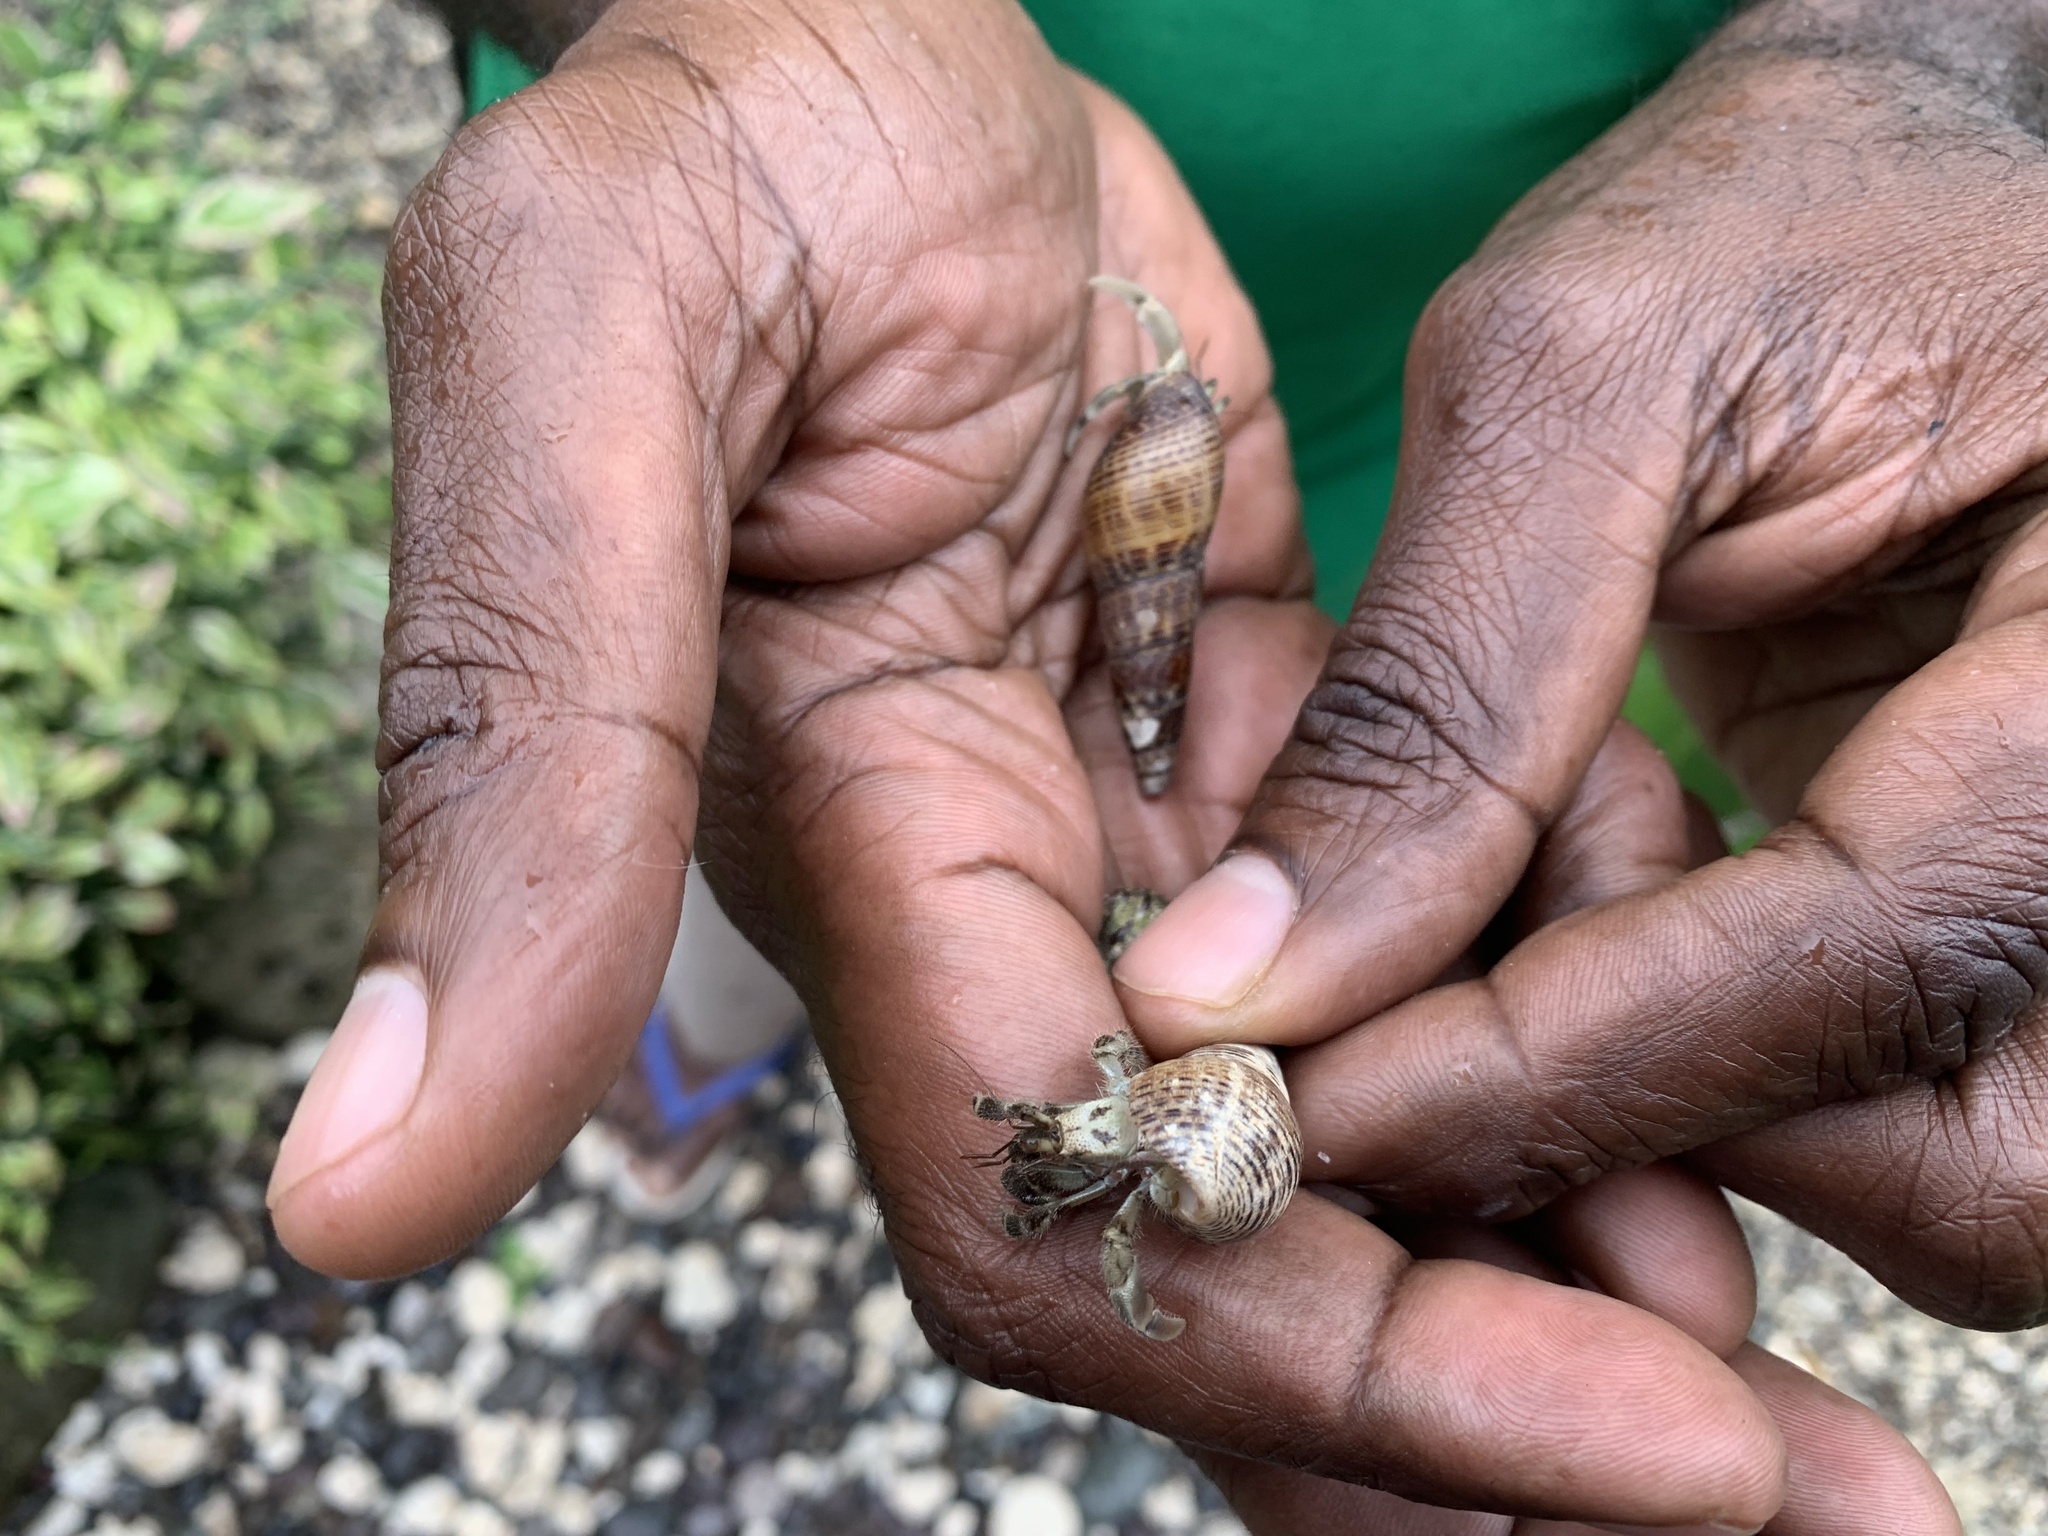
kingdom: Animalia
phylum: Arthropoda
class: Malacostraca
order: Decapoda
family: Coenobitidae
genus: Coenobita
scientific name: Coenobita rugosus
